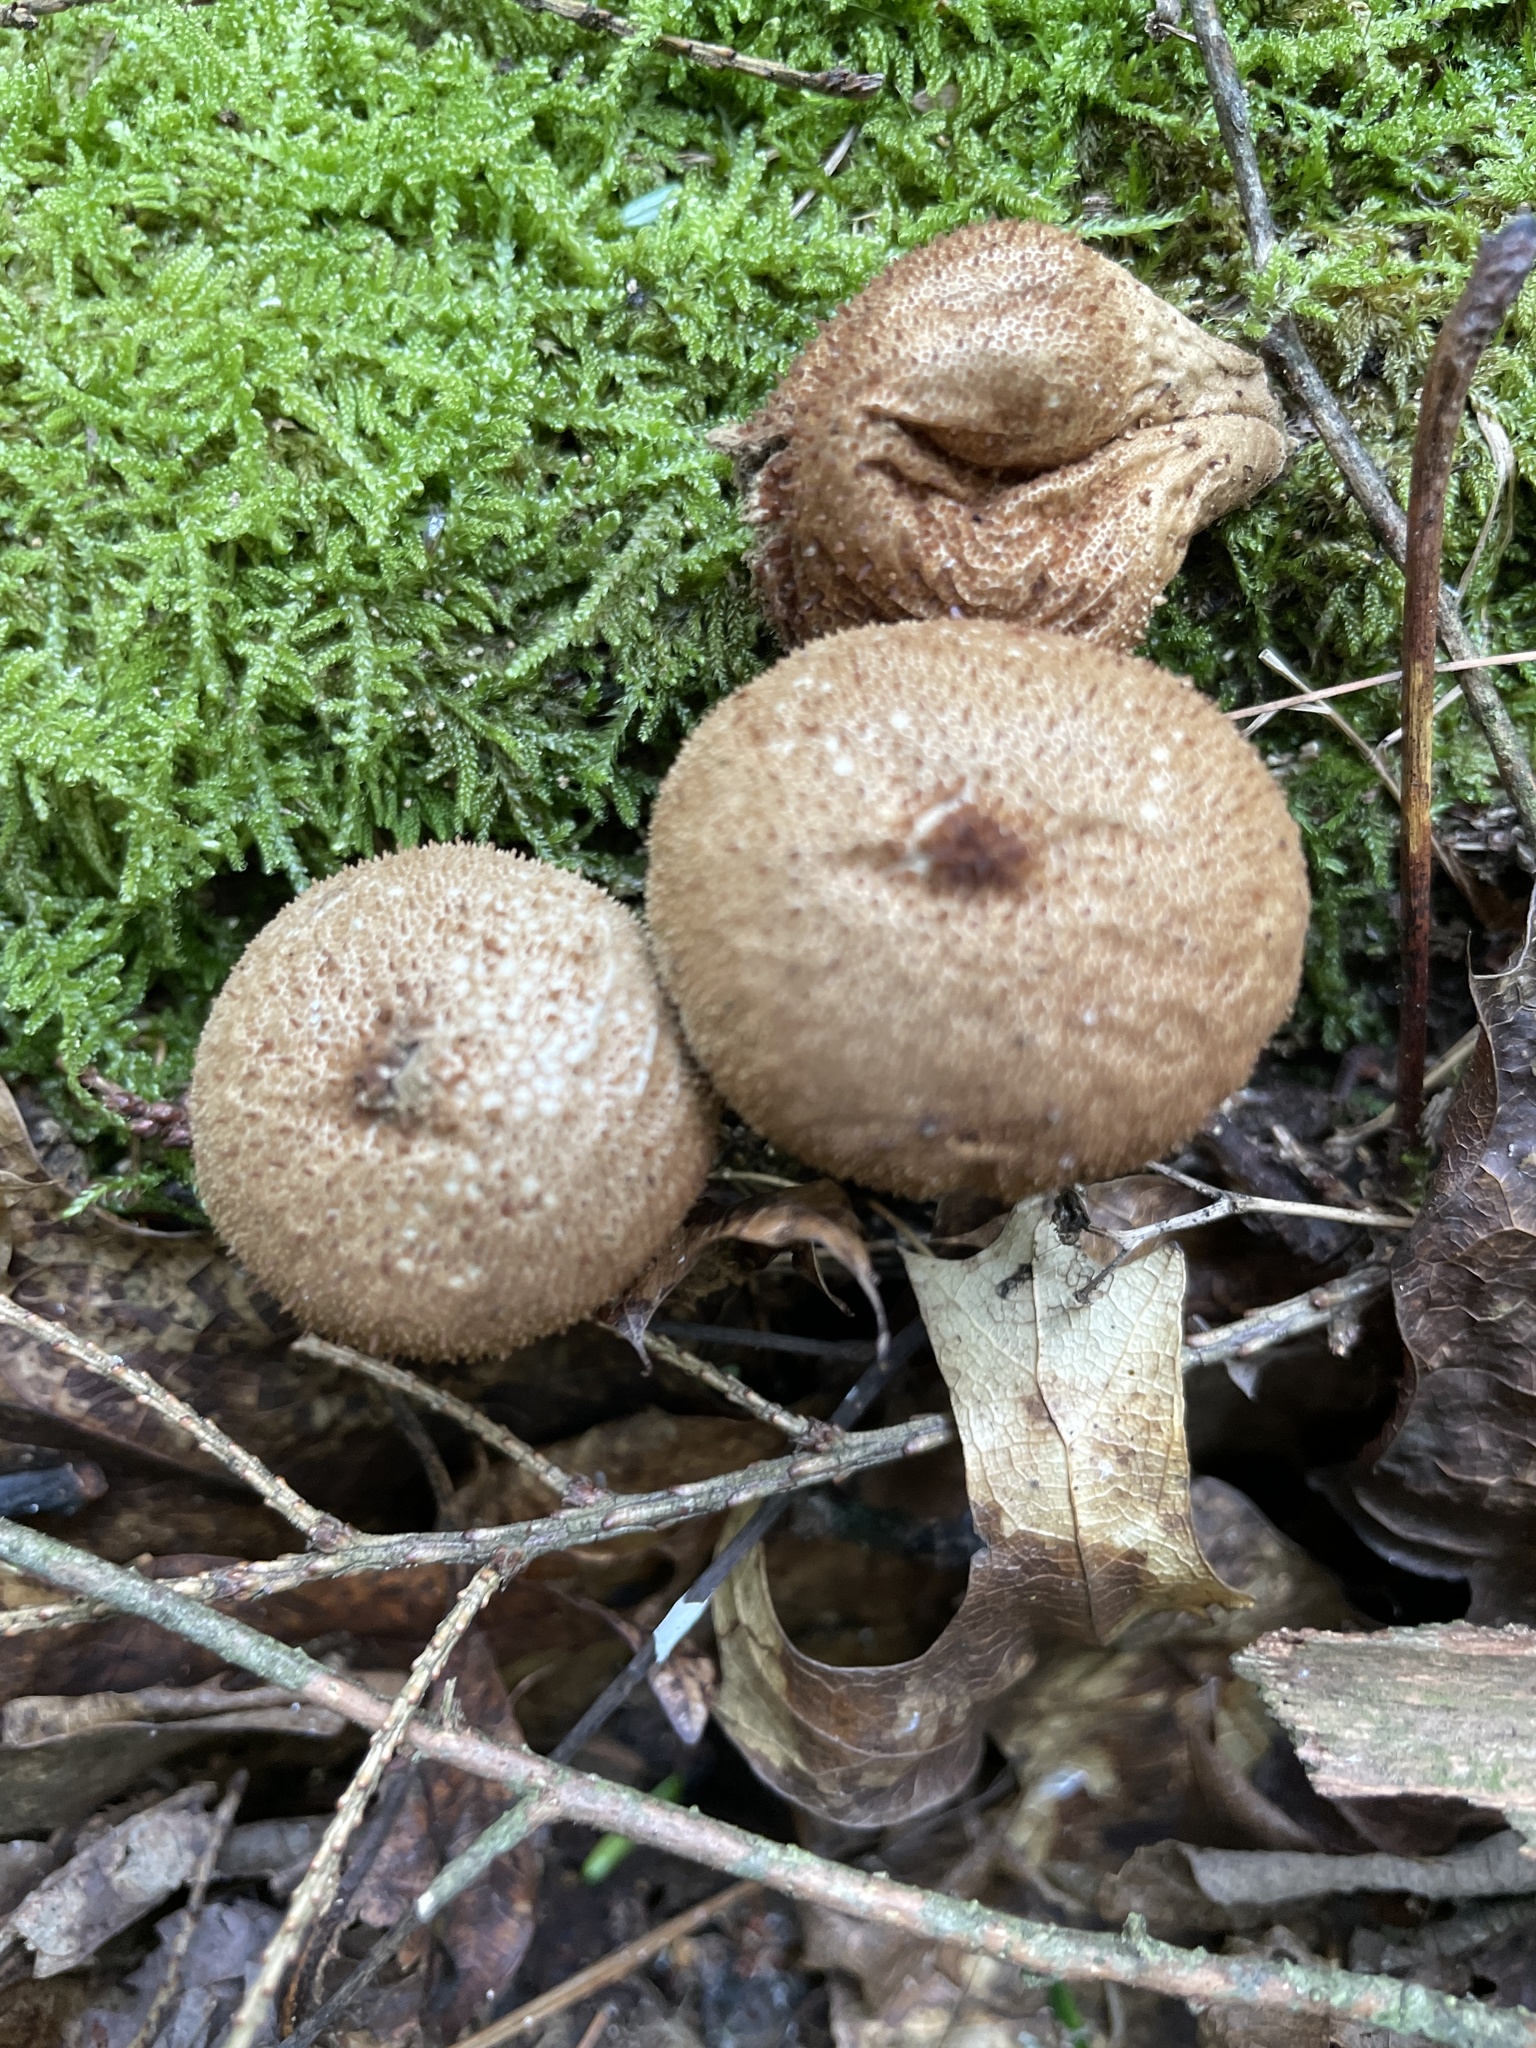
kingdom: Fungi
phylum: Basidiomycota
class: Agaricomycetes
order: Agaricales
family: Lycoperdaceae
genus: Lycoperdon
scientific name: Lycoperdon perlatum
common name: Common puffball
